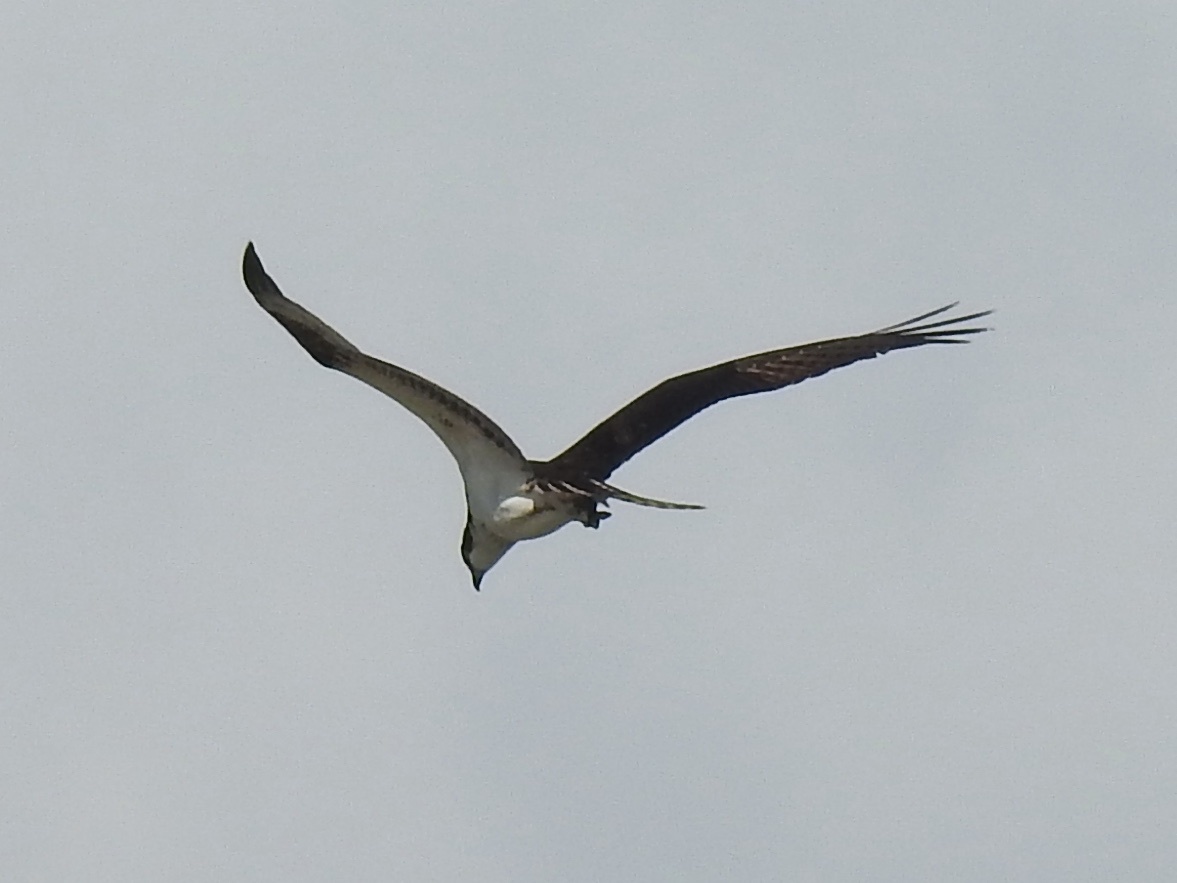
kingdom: Animalia
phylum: Chordata
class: Aves
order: Accipitriformes
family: Pandionidae
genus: Pandion
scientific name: Pandion haliaetus
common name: Osprey
